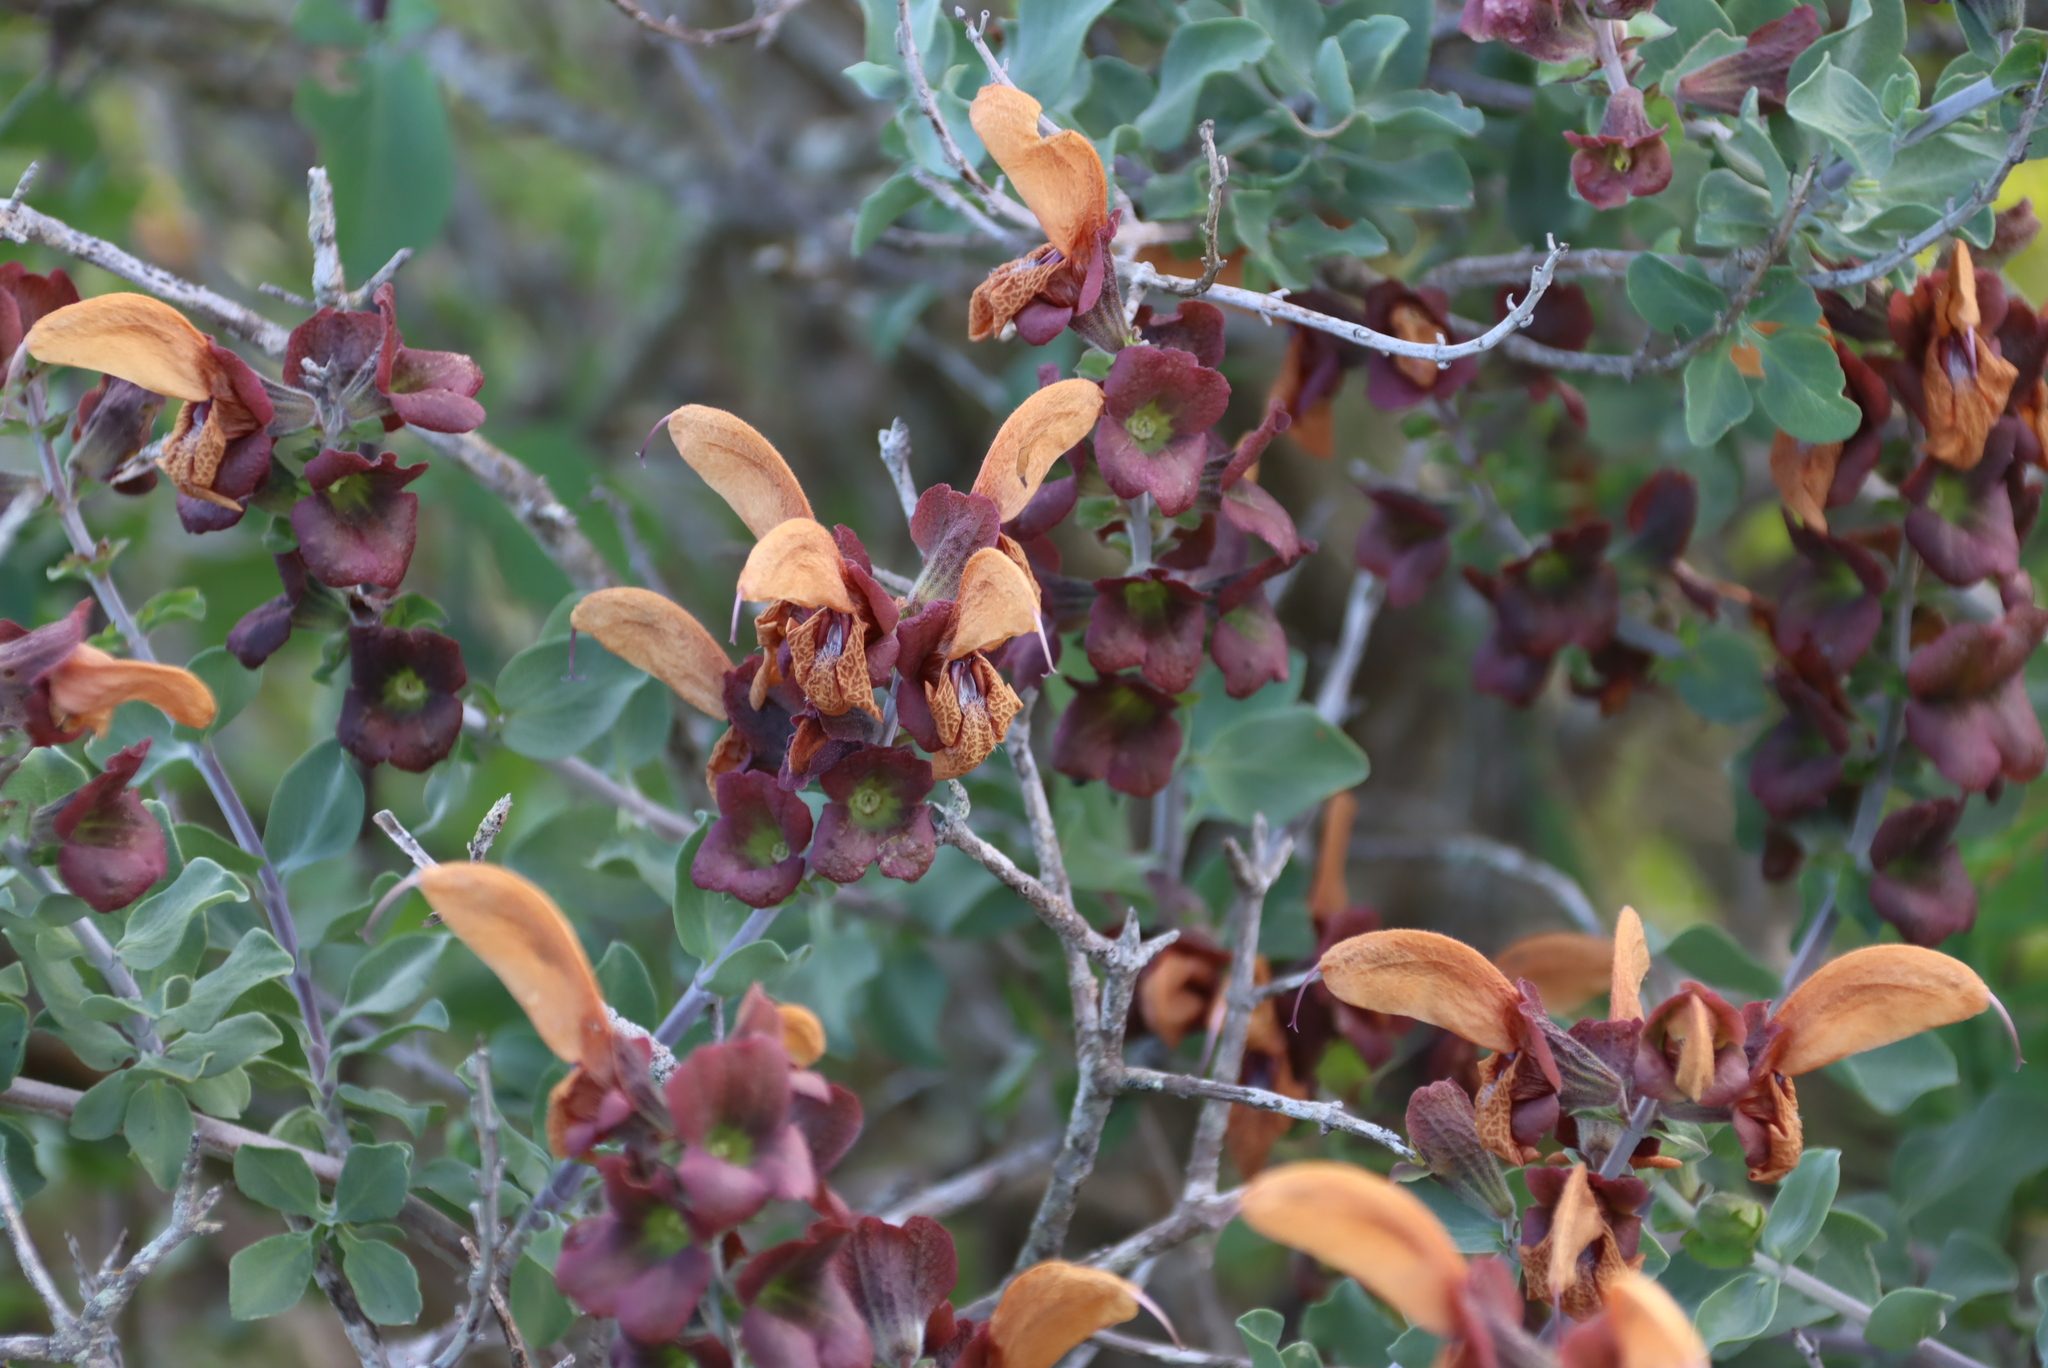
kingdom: Plantae
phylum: Tracheophyta
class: Magnoliopsida
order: Lamiales
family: Lamiaceae
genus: Salvia
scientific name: Salvia aurea
